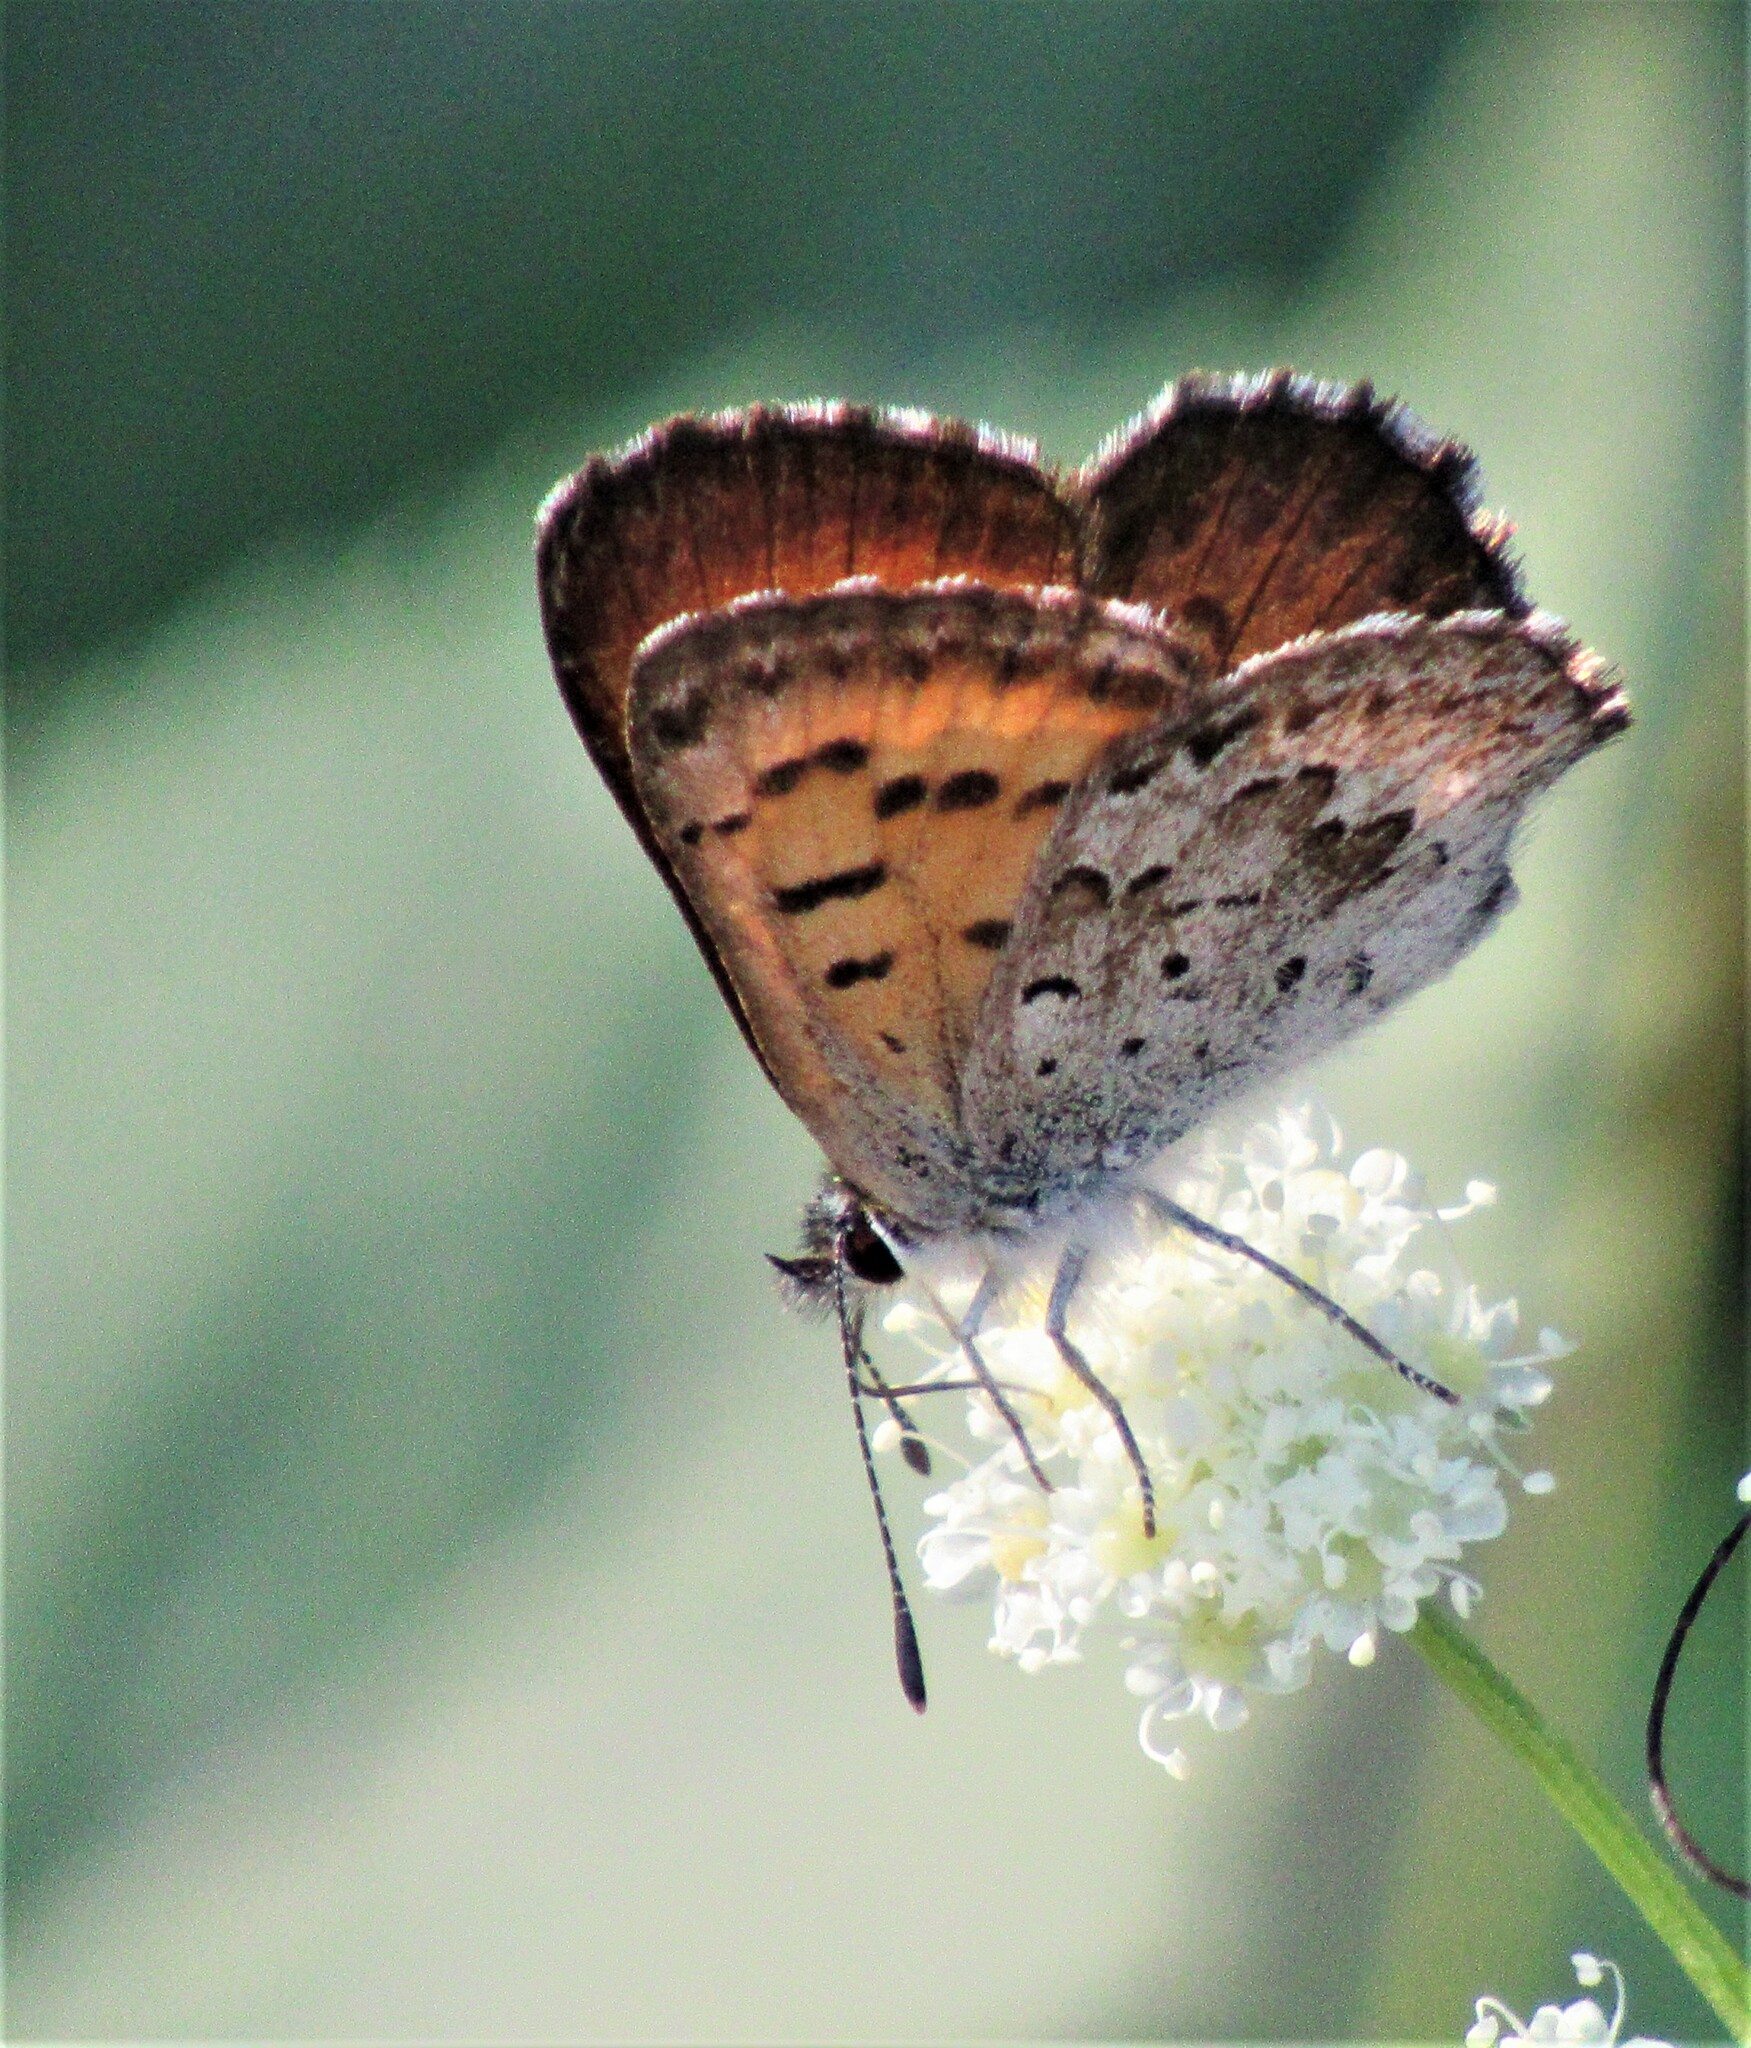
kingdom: Animalia
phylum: Arthropoda
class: Insecta
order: Lepidoptera
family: Lycaenidae
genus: Tharsalea
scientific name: Tharsalea mariposa
